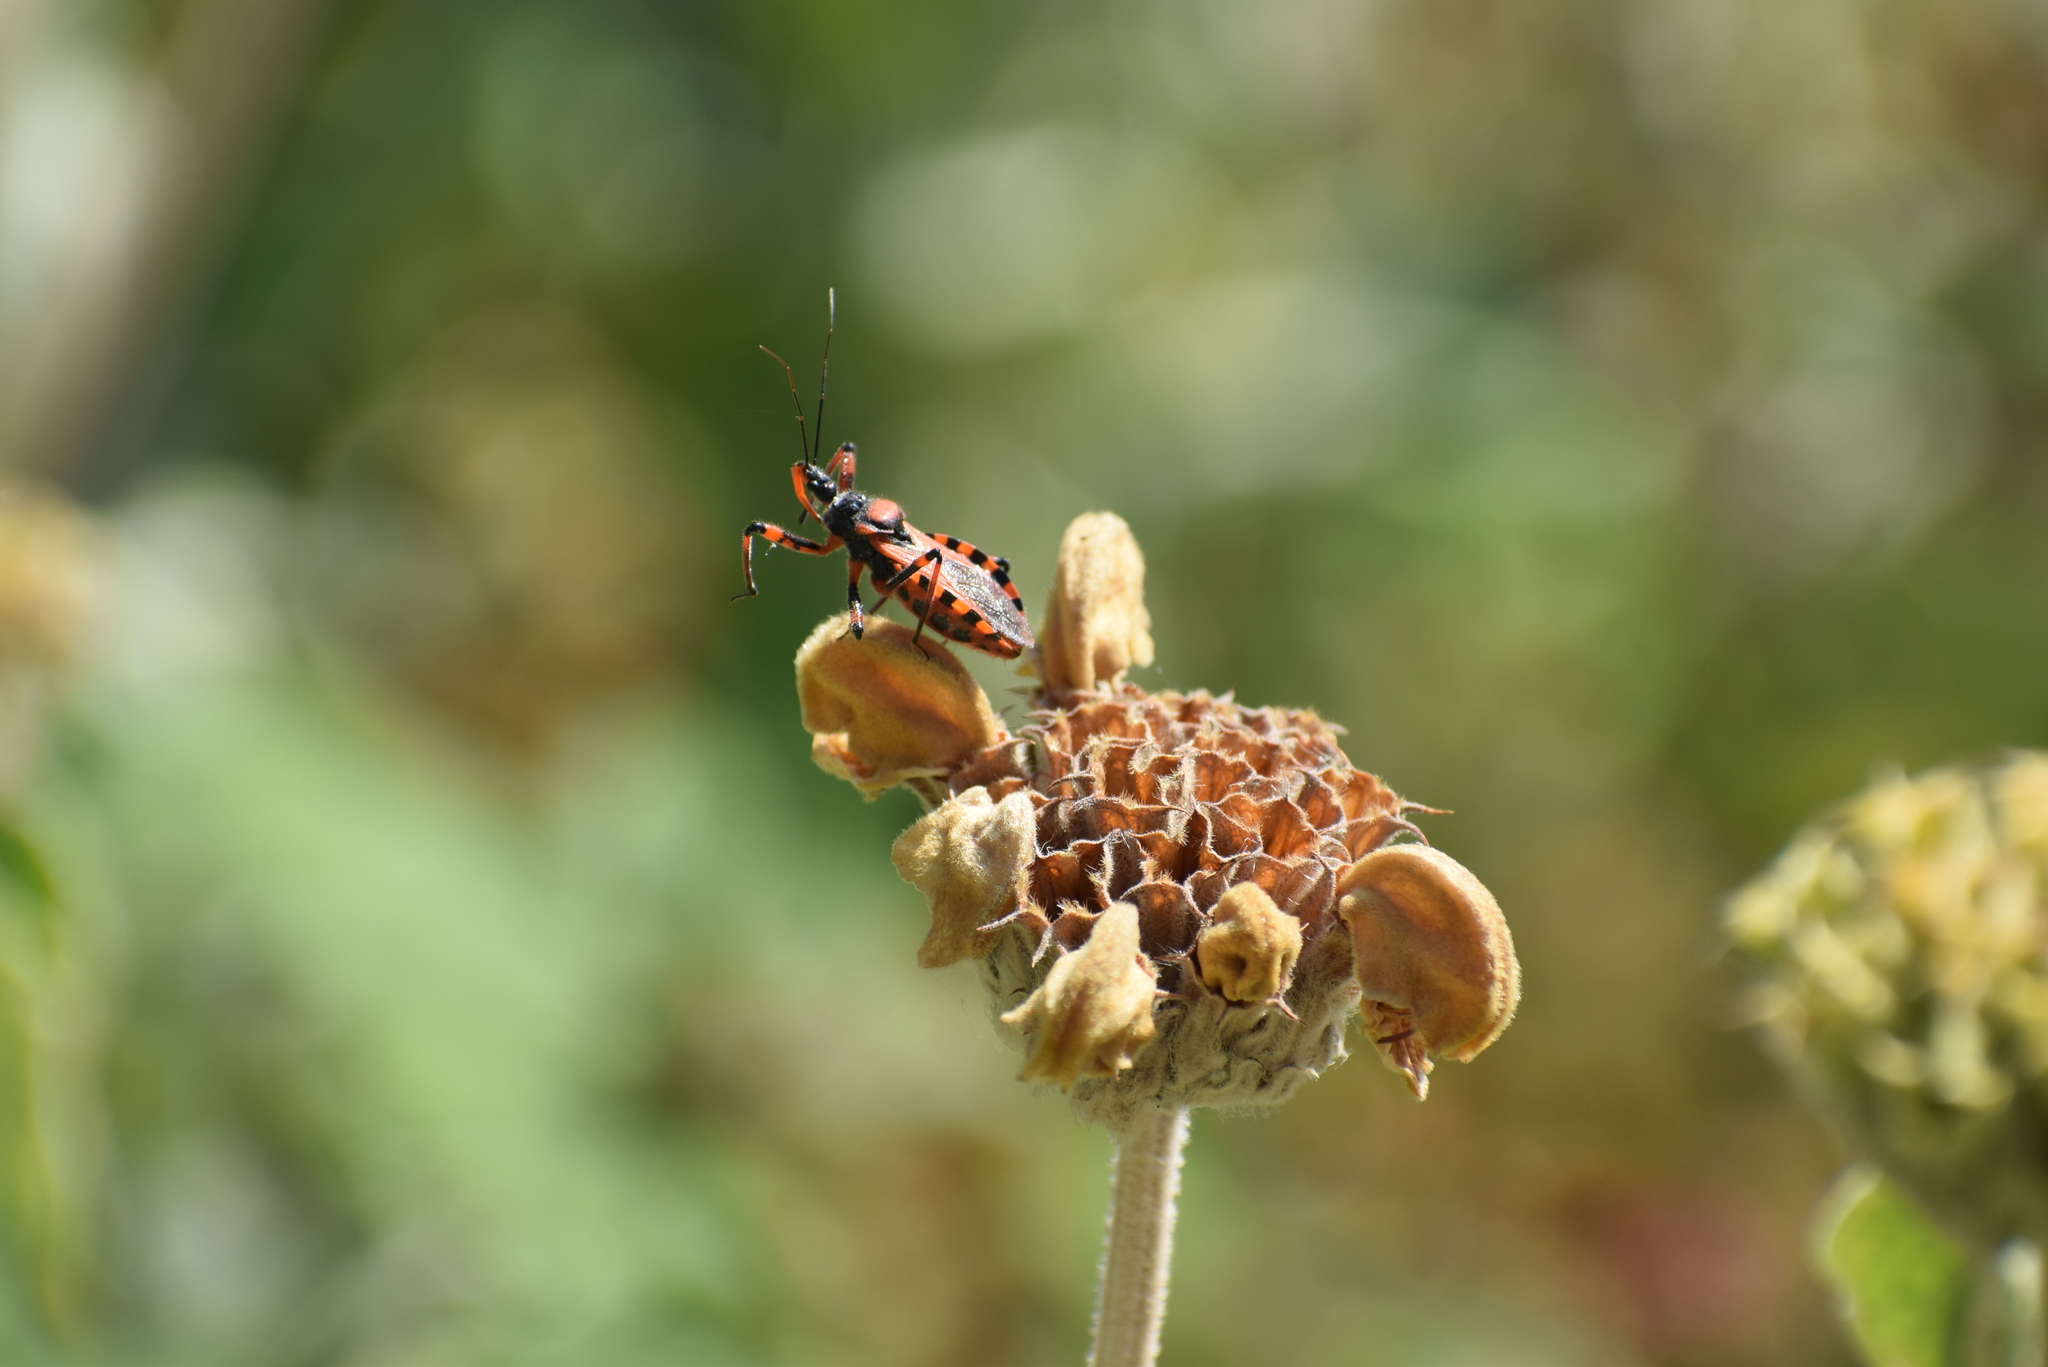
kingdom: Animalia
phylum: Arthropoda
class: Insecta
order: Hemiptera
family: Reduviidae
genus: Rhynocoris
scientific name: Rhynocoris
